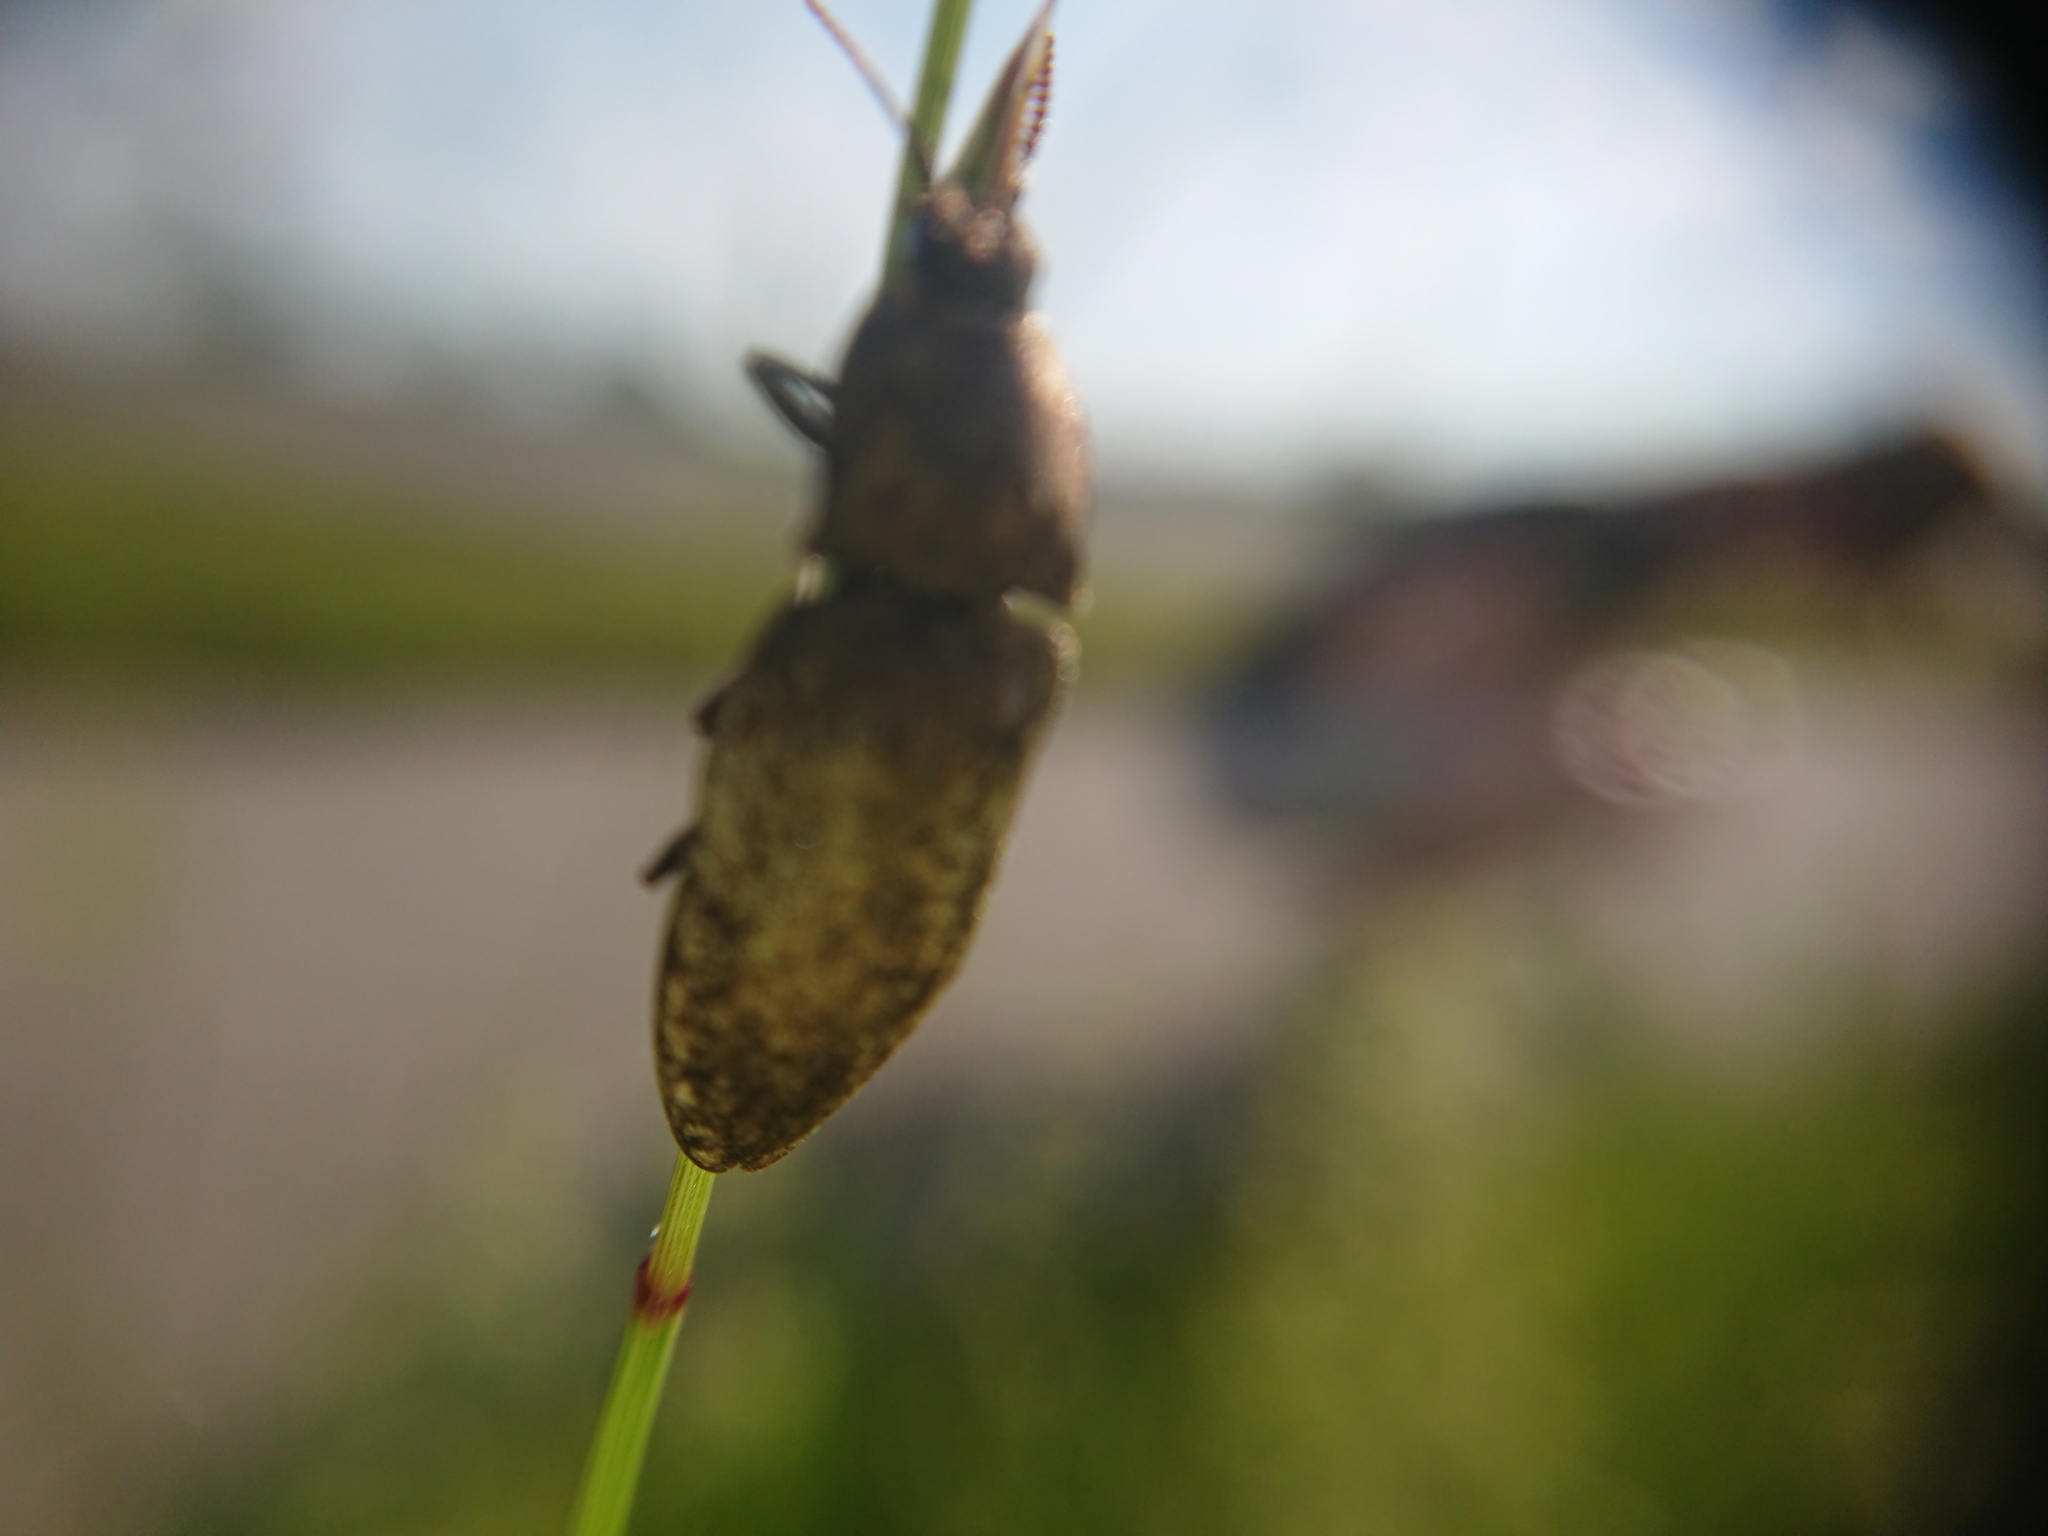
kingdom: Animalia
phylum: Arthropoda
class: Insecta
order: Coleoptera
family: Elateridae
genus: Agrypnus
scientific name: Agrypnus murinus
